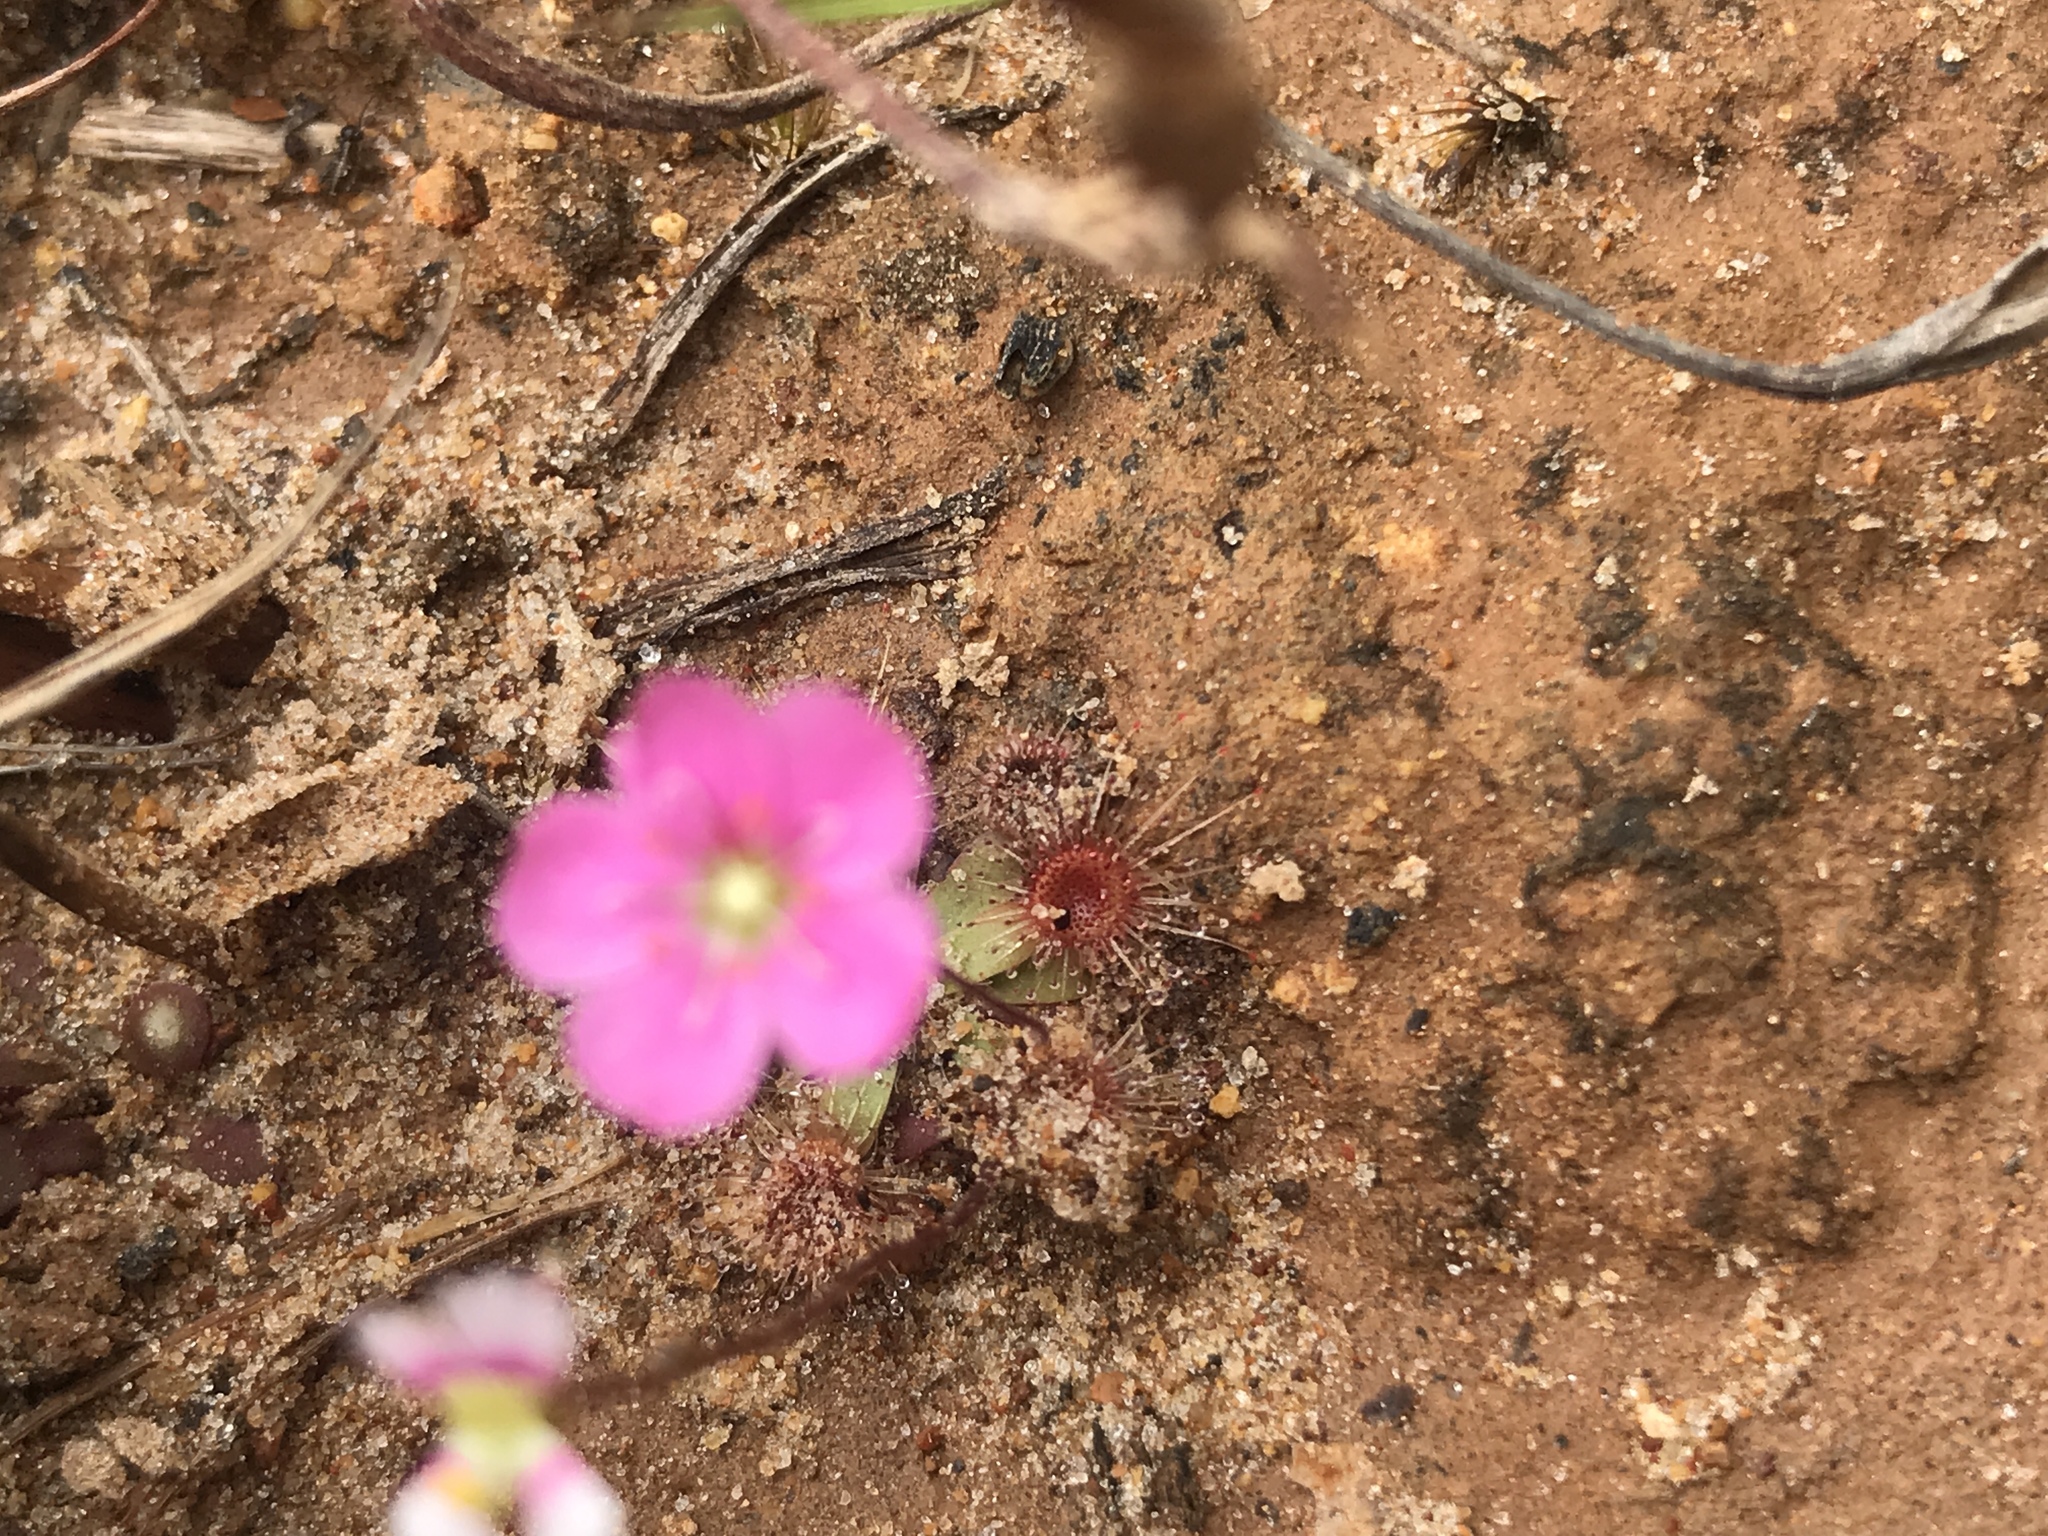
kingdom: Plantae
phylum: Tracheophyta
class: Magnoliopsida
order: Caryophyllales
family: Droseraceae
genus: Drosera
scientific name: Drosera pulchella
